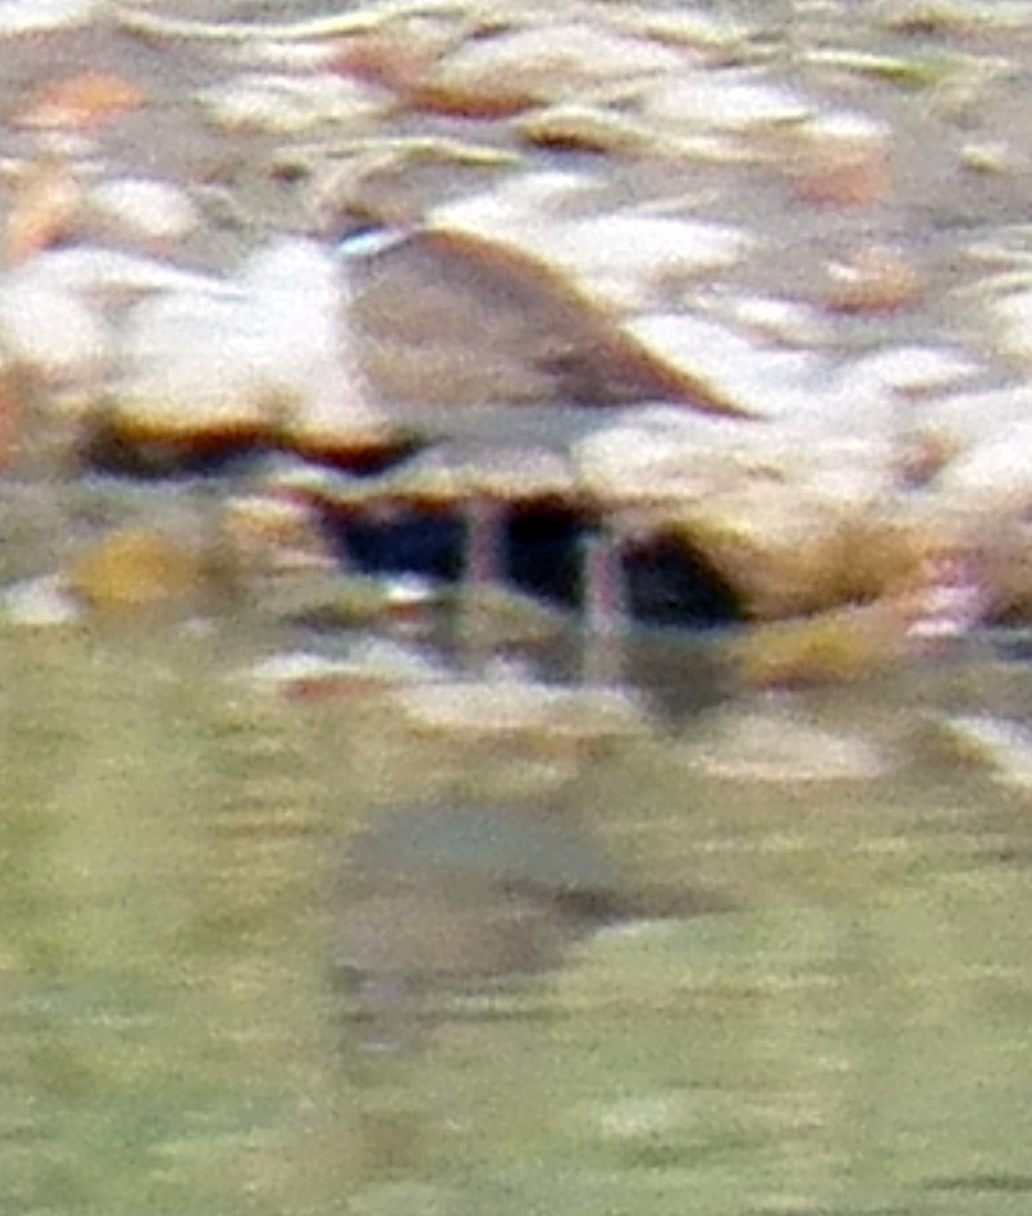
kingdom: Animalia
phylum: Chordata
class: Aves
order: Charadriiformes
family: Charadriidae
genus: Charadrius
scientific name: Charadrius vociferus
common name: Killdeer
